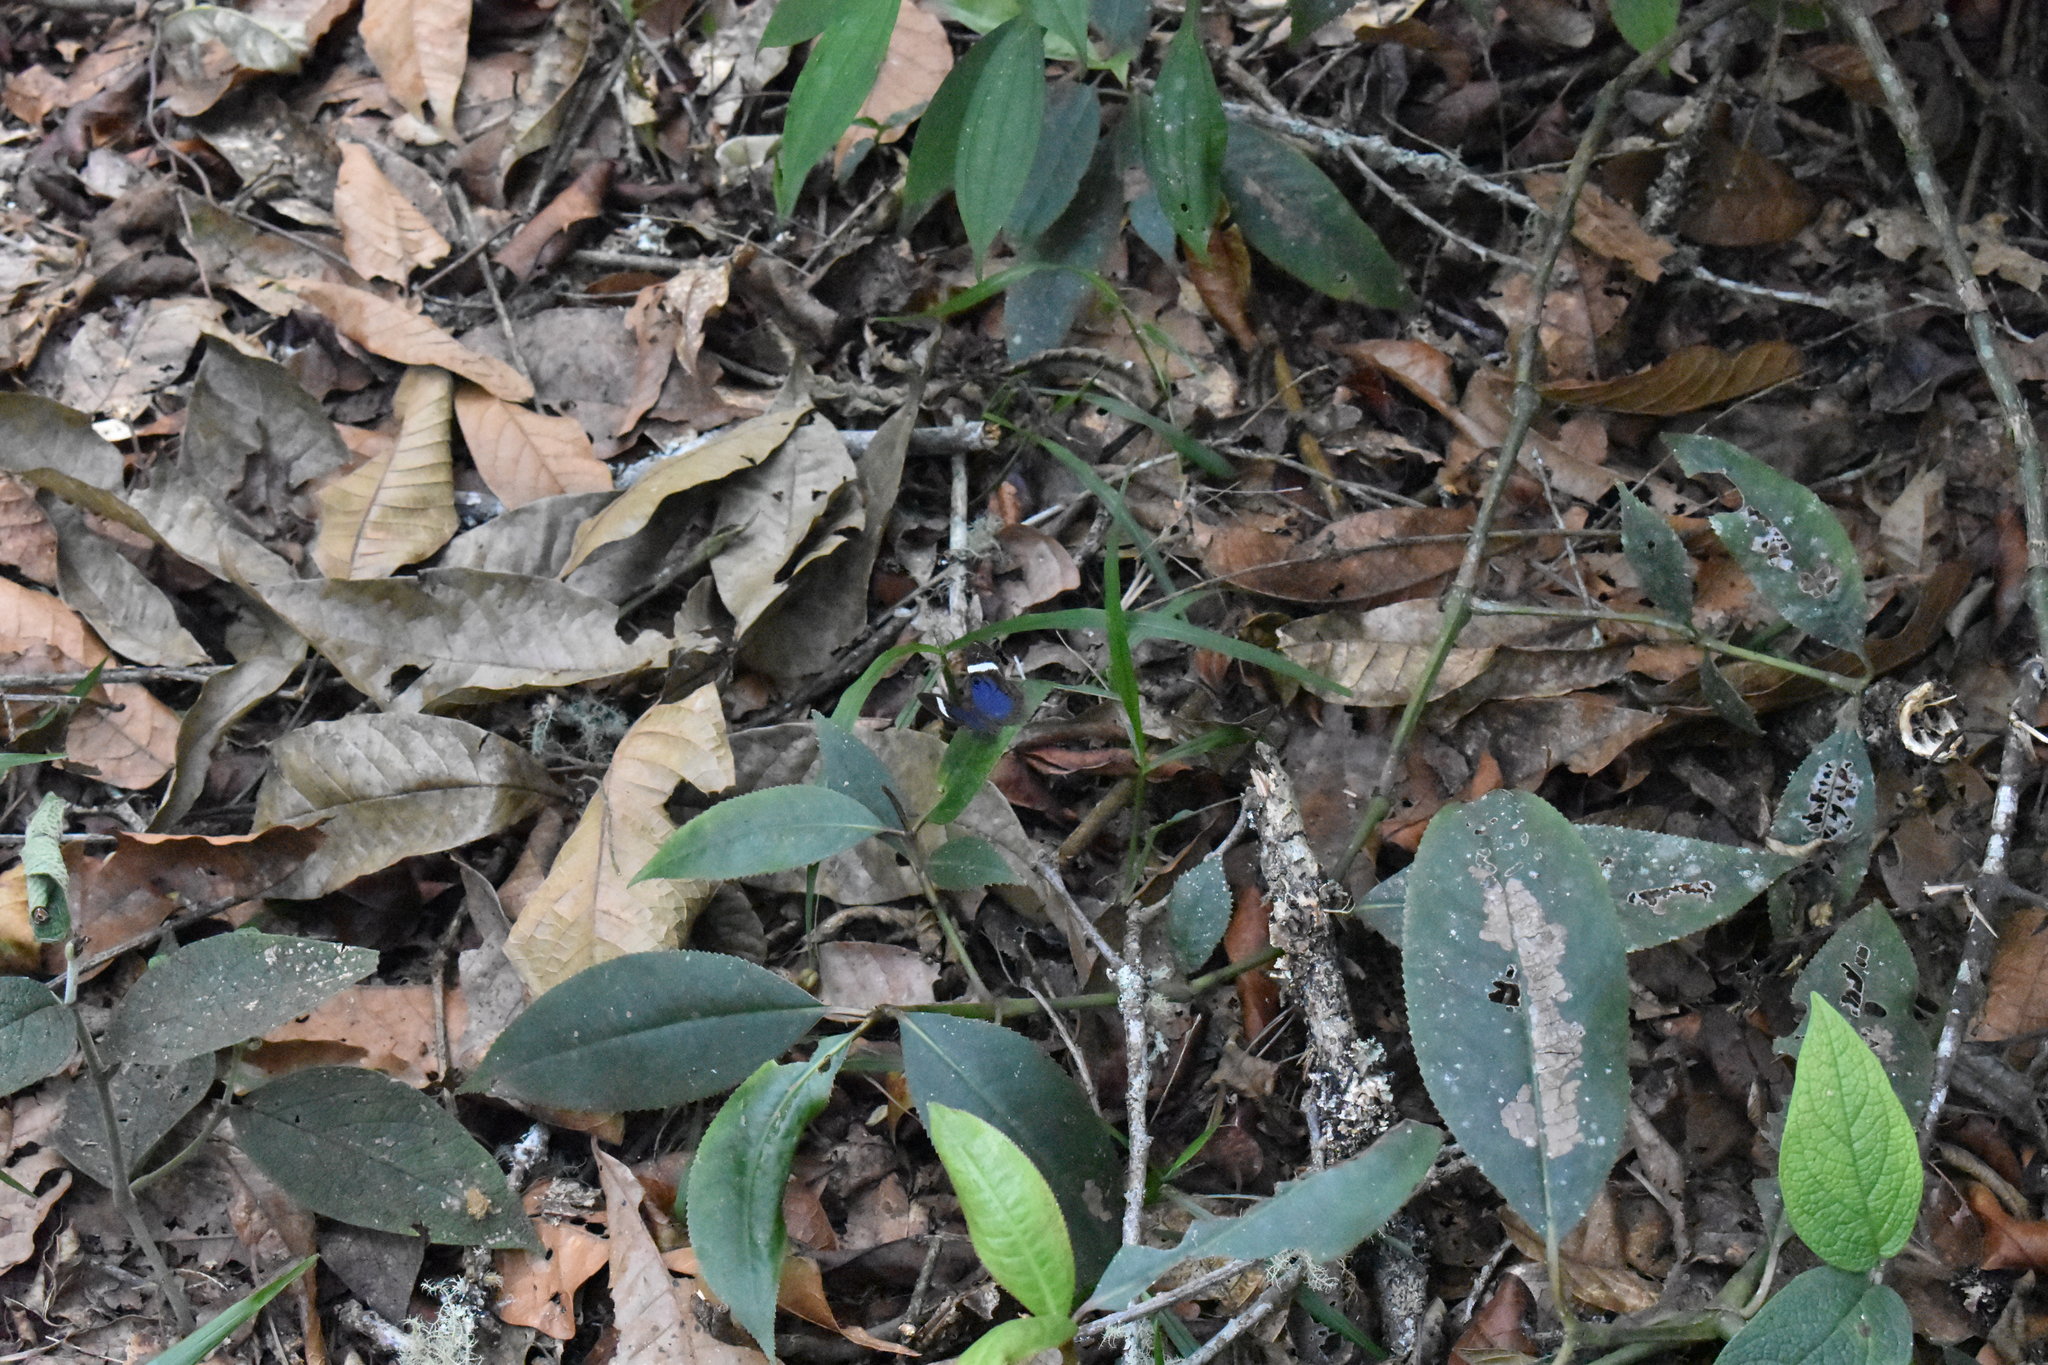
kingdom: Animalia
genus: Mesosemia
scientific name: Mesosemia mevania
